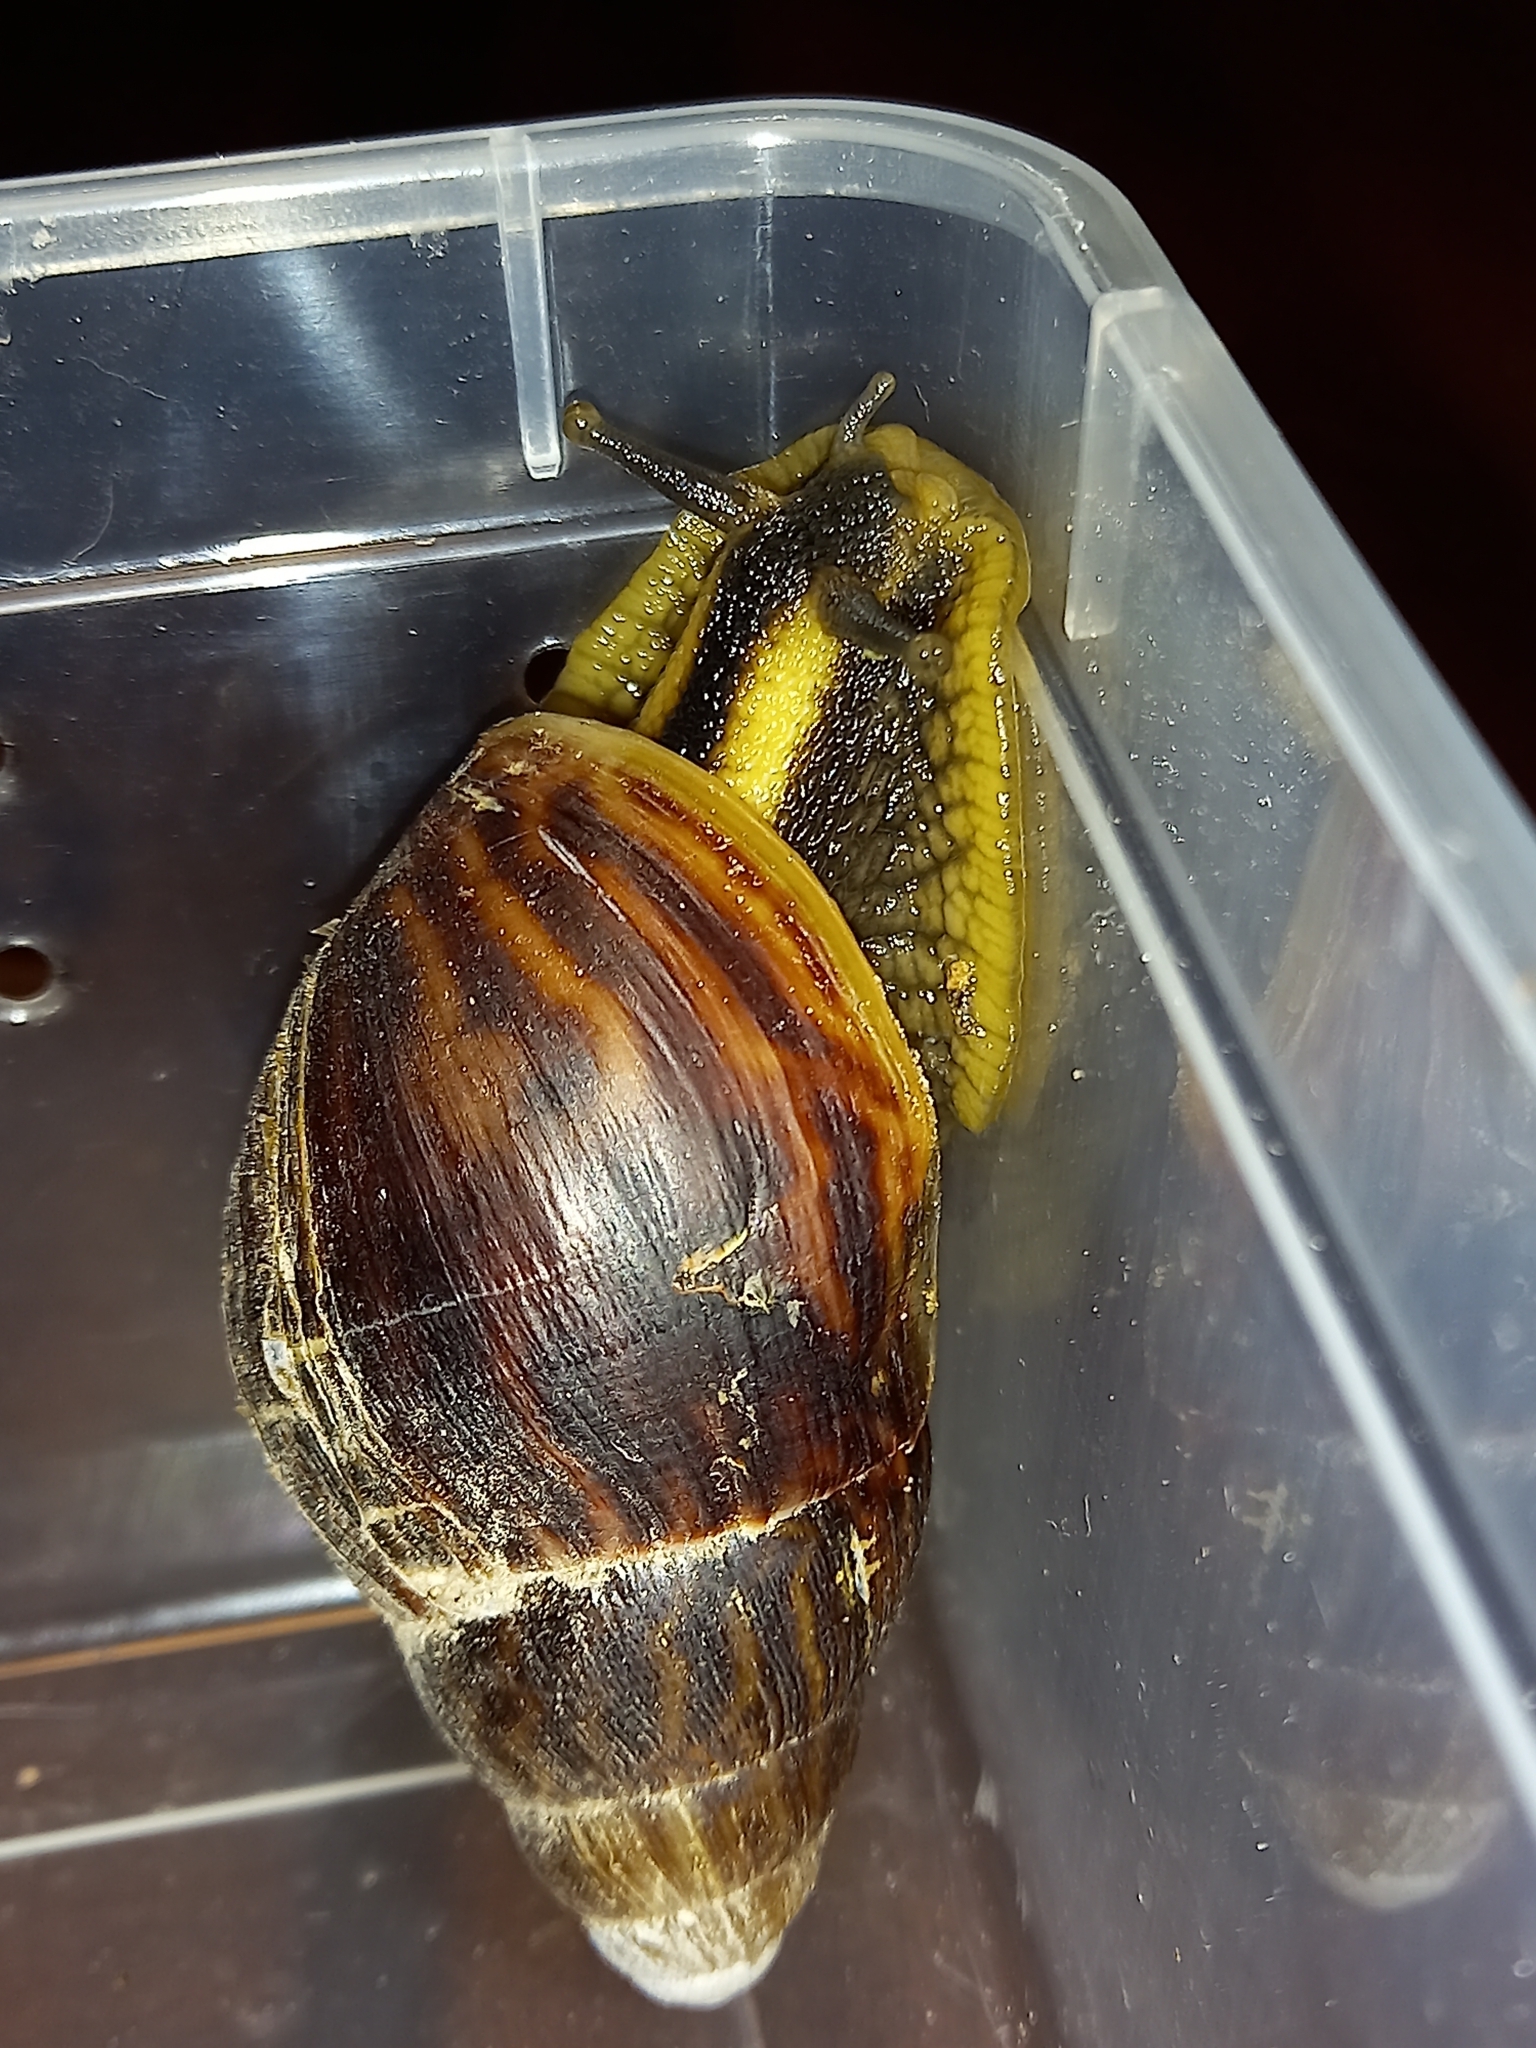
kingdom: Animalia
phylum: Mollusca
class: Gastropoda
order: Stylommatophora
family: Achatinidae
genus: Cochlitoma
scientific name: Cochlitoma zebra
